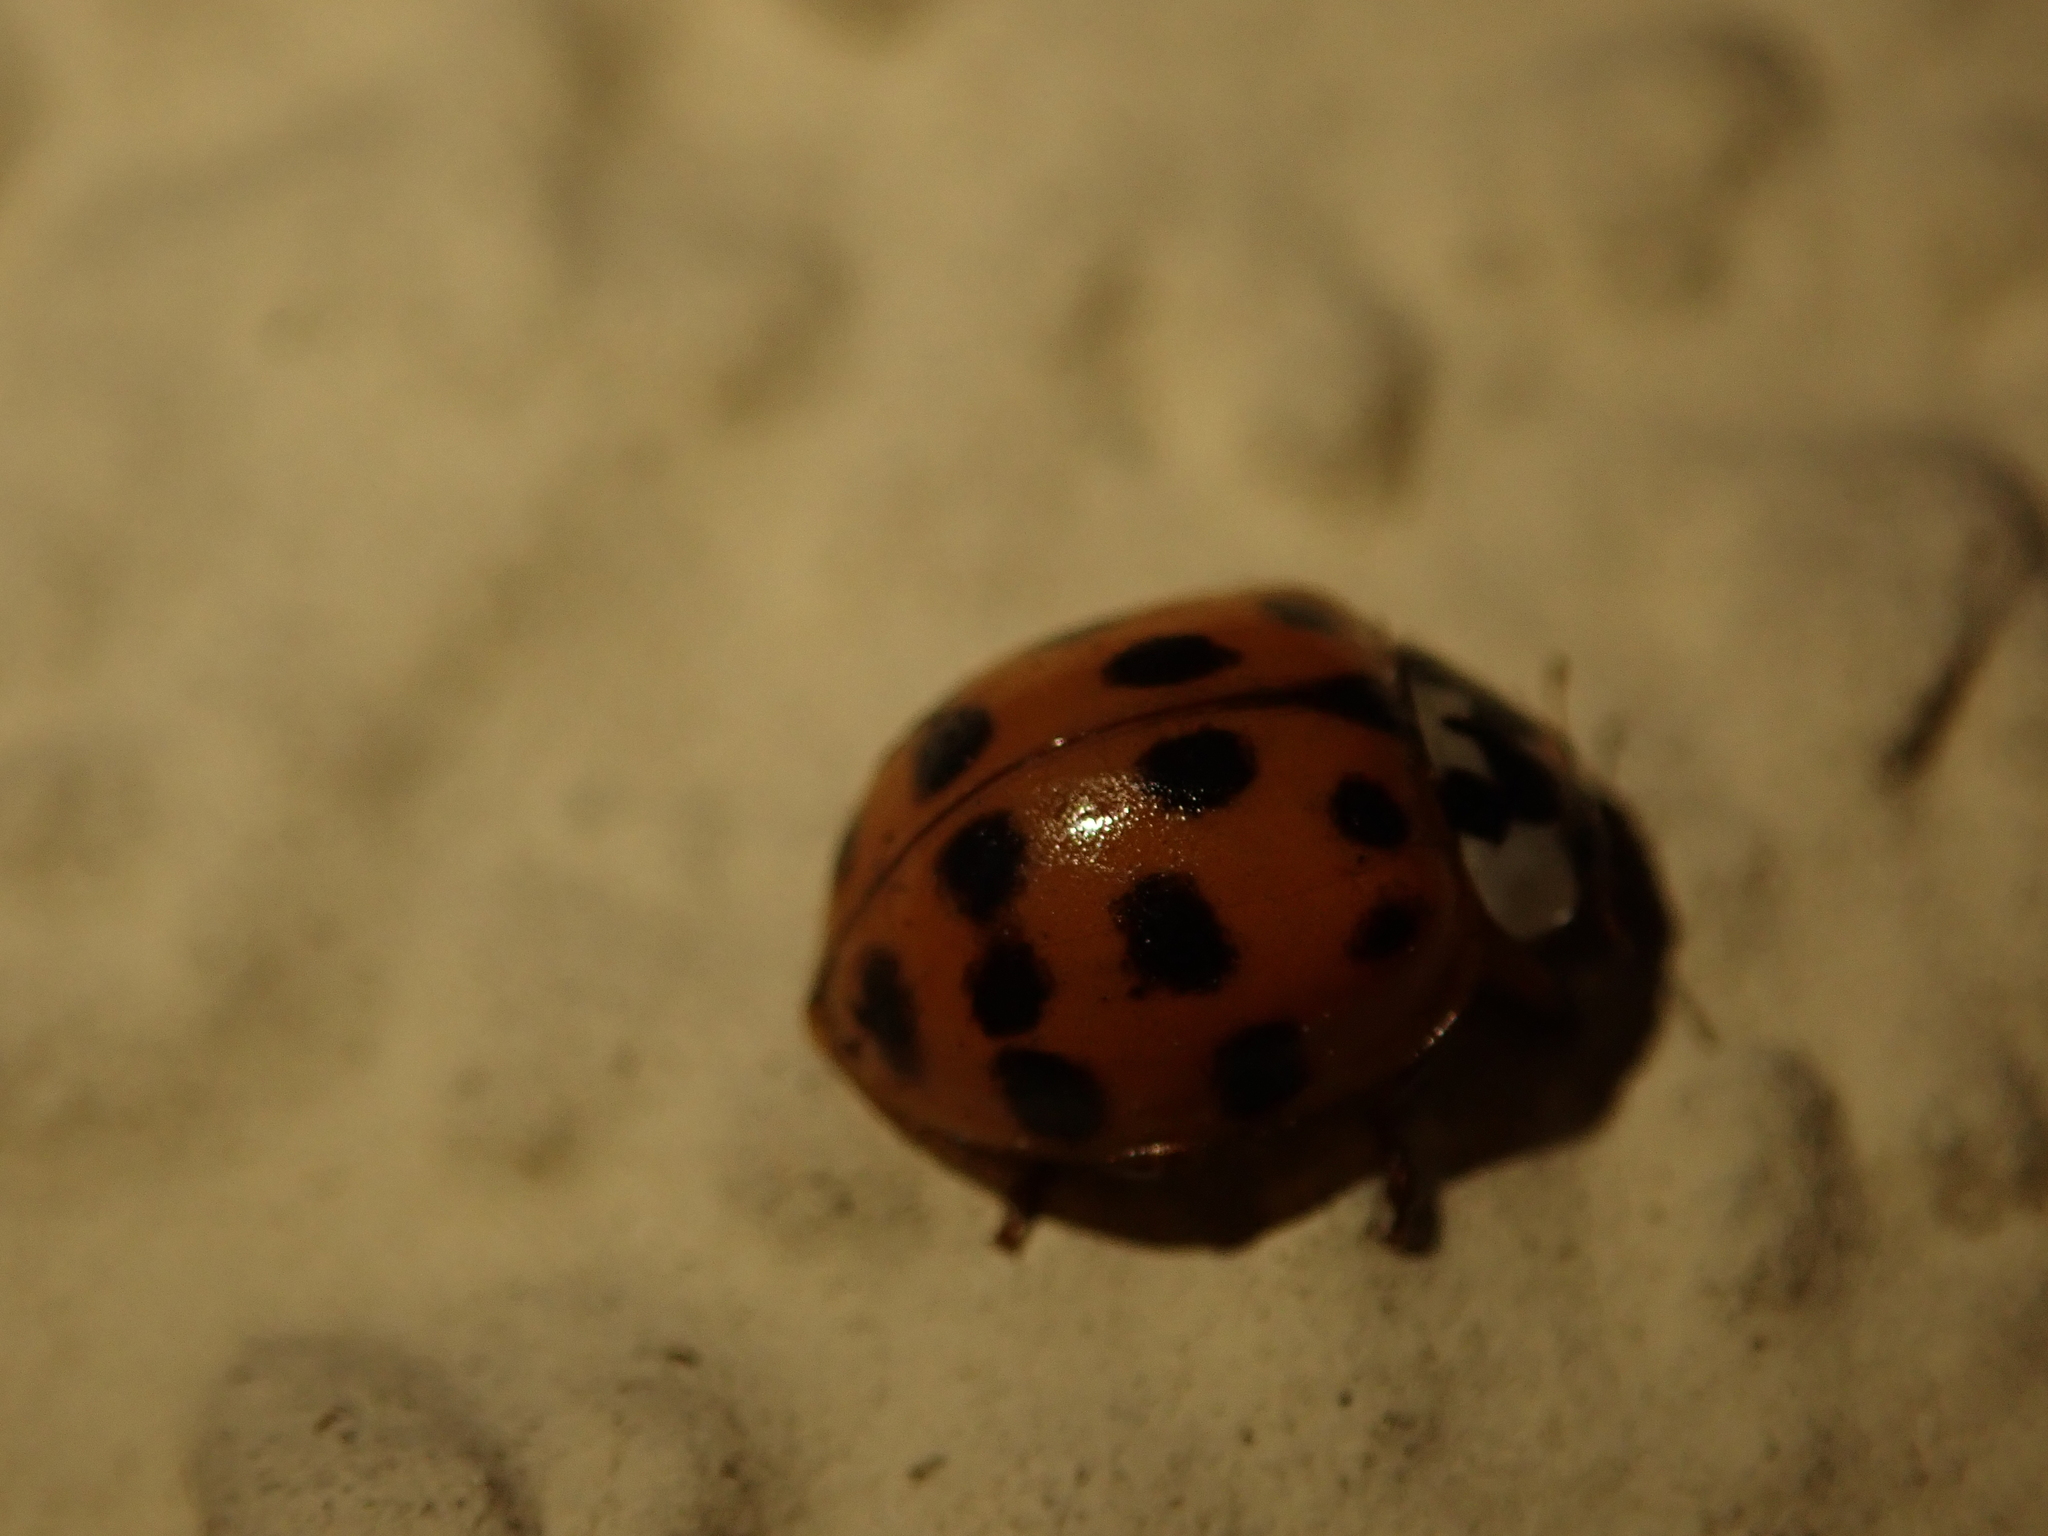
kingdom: Animalia
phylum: Arthropoda
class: Insecta
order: Coleoptera
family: Coccinellidae
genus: Harmonia
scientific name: Harmonia axyridis
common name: Harlequin ladybird
